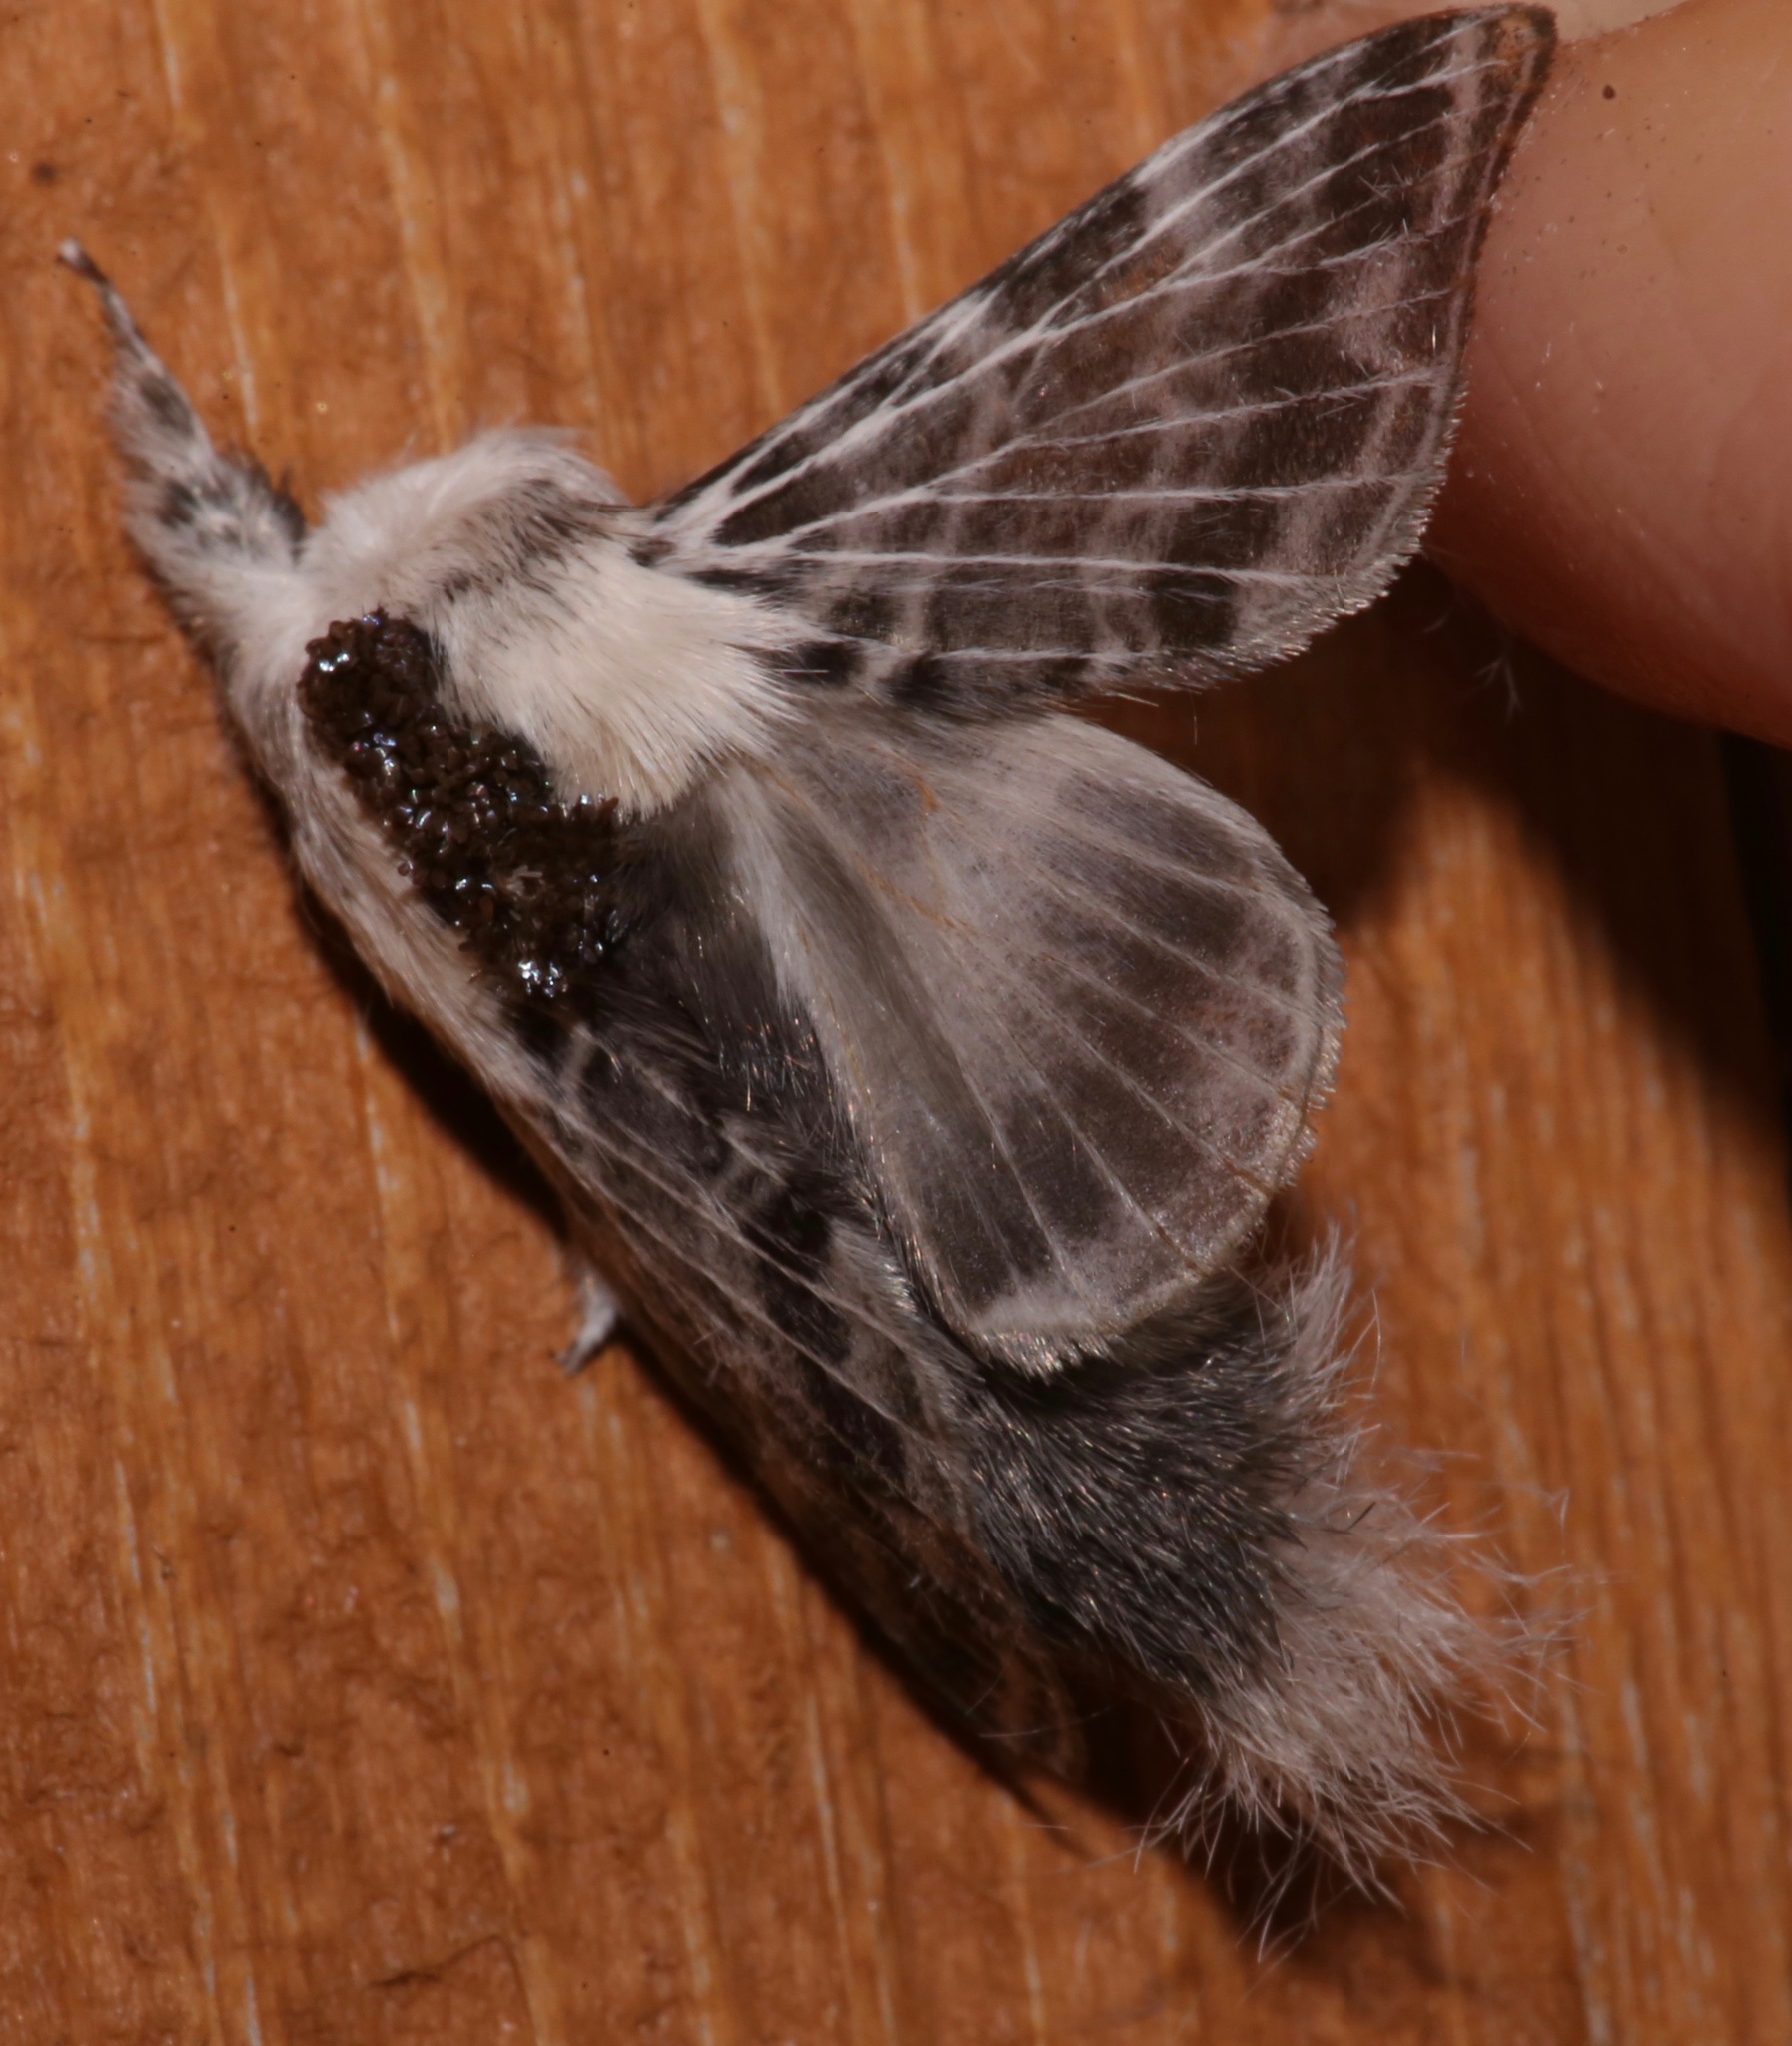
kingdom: Animalia
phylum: Arthropoda
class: Insecta
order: Lepidoptera
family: Lasiocampidae
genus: Tolype
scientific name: Tolype notialis
